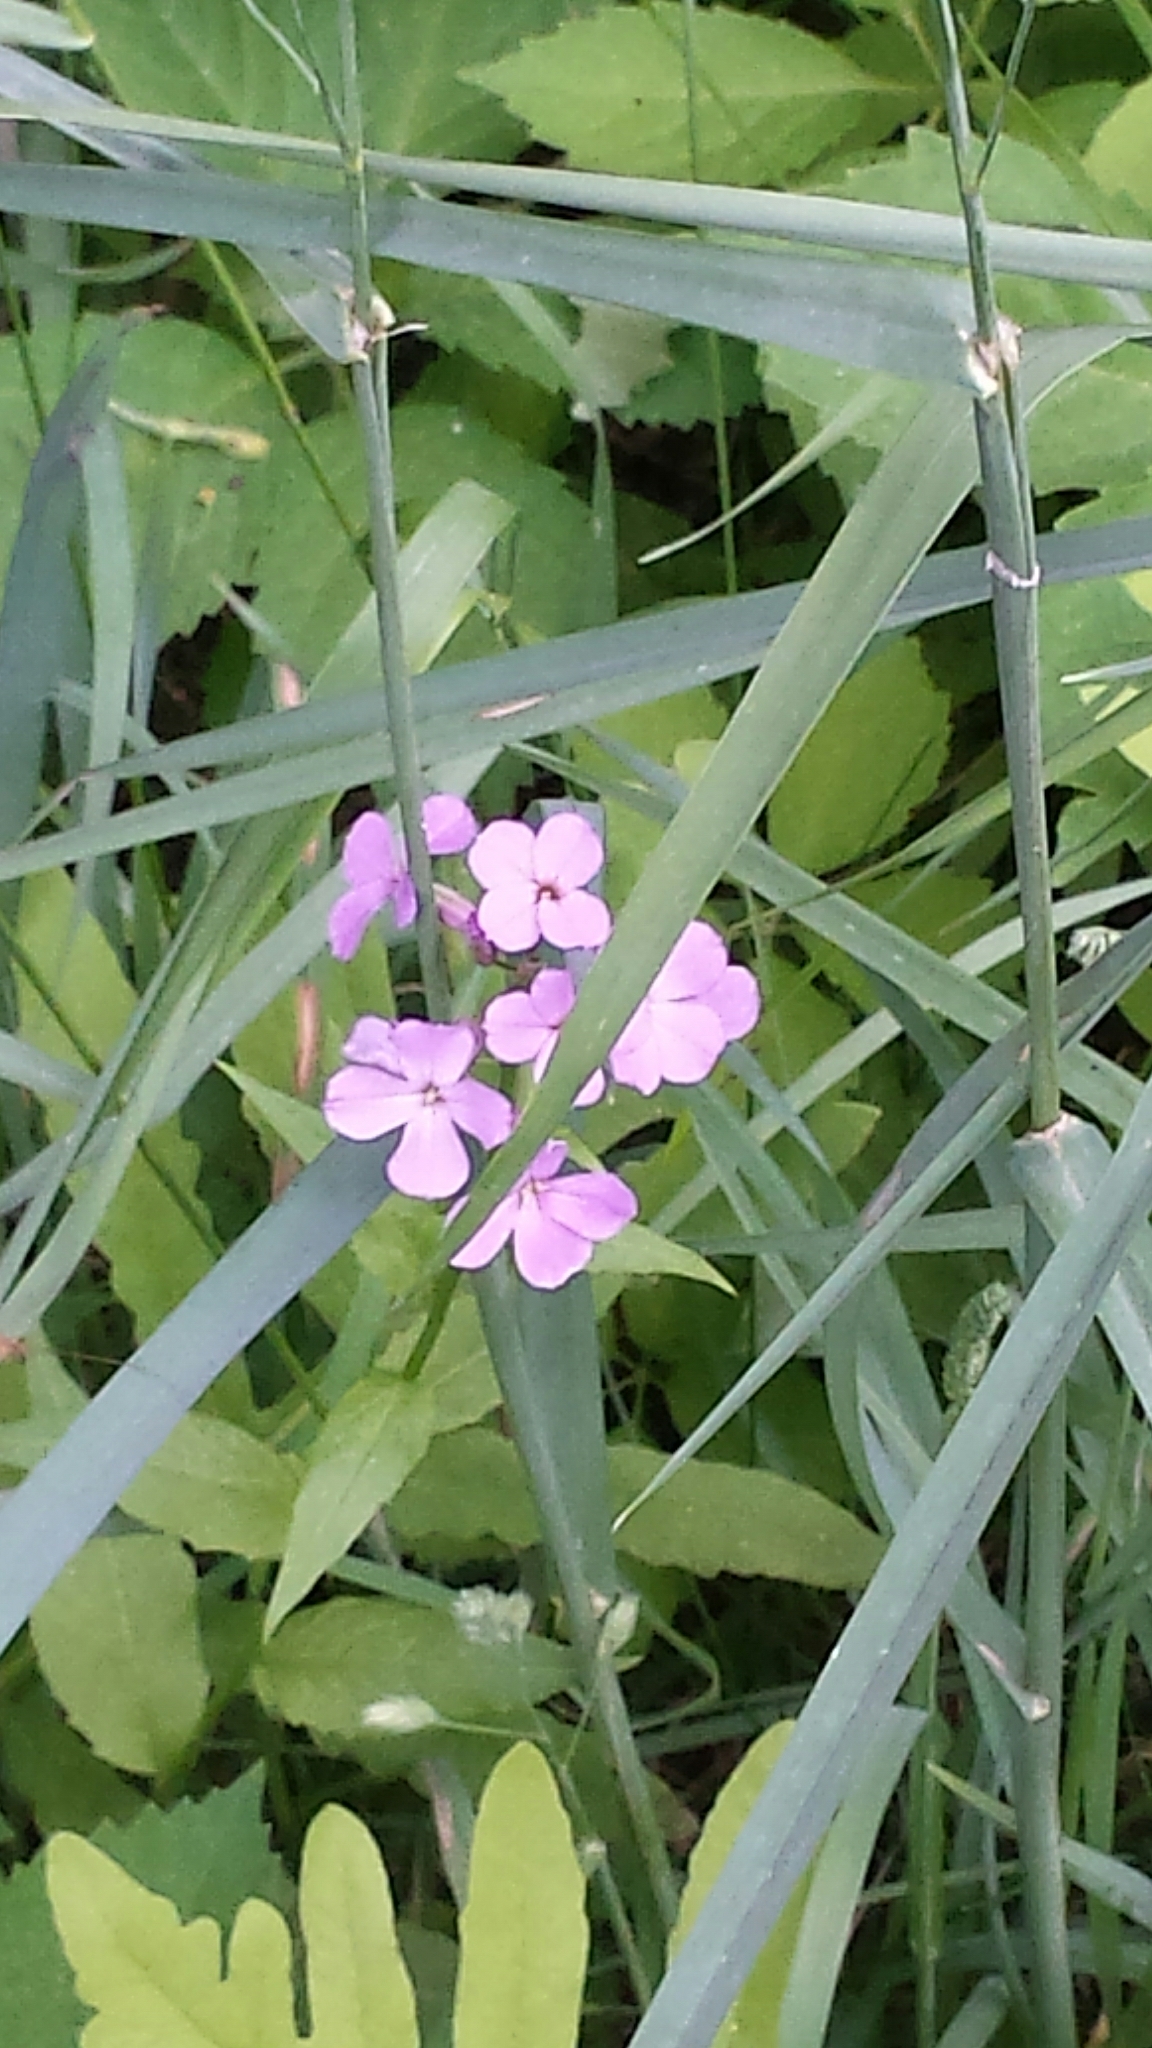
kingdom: Plantae
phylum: Tracheophyta
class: Magnoliopsida
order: Brassicales
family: Brassicaceae
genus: Hesperis
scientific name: Hesperis matronalis
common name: Dame's-violet
